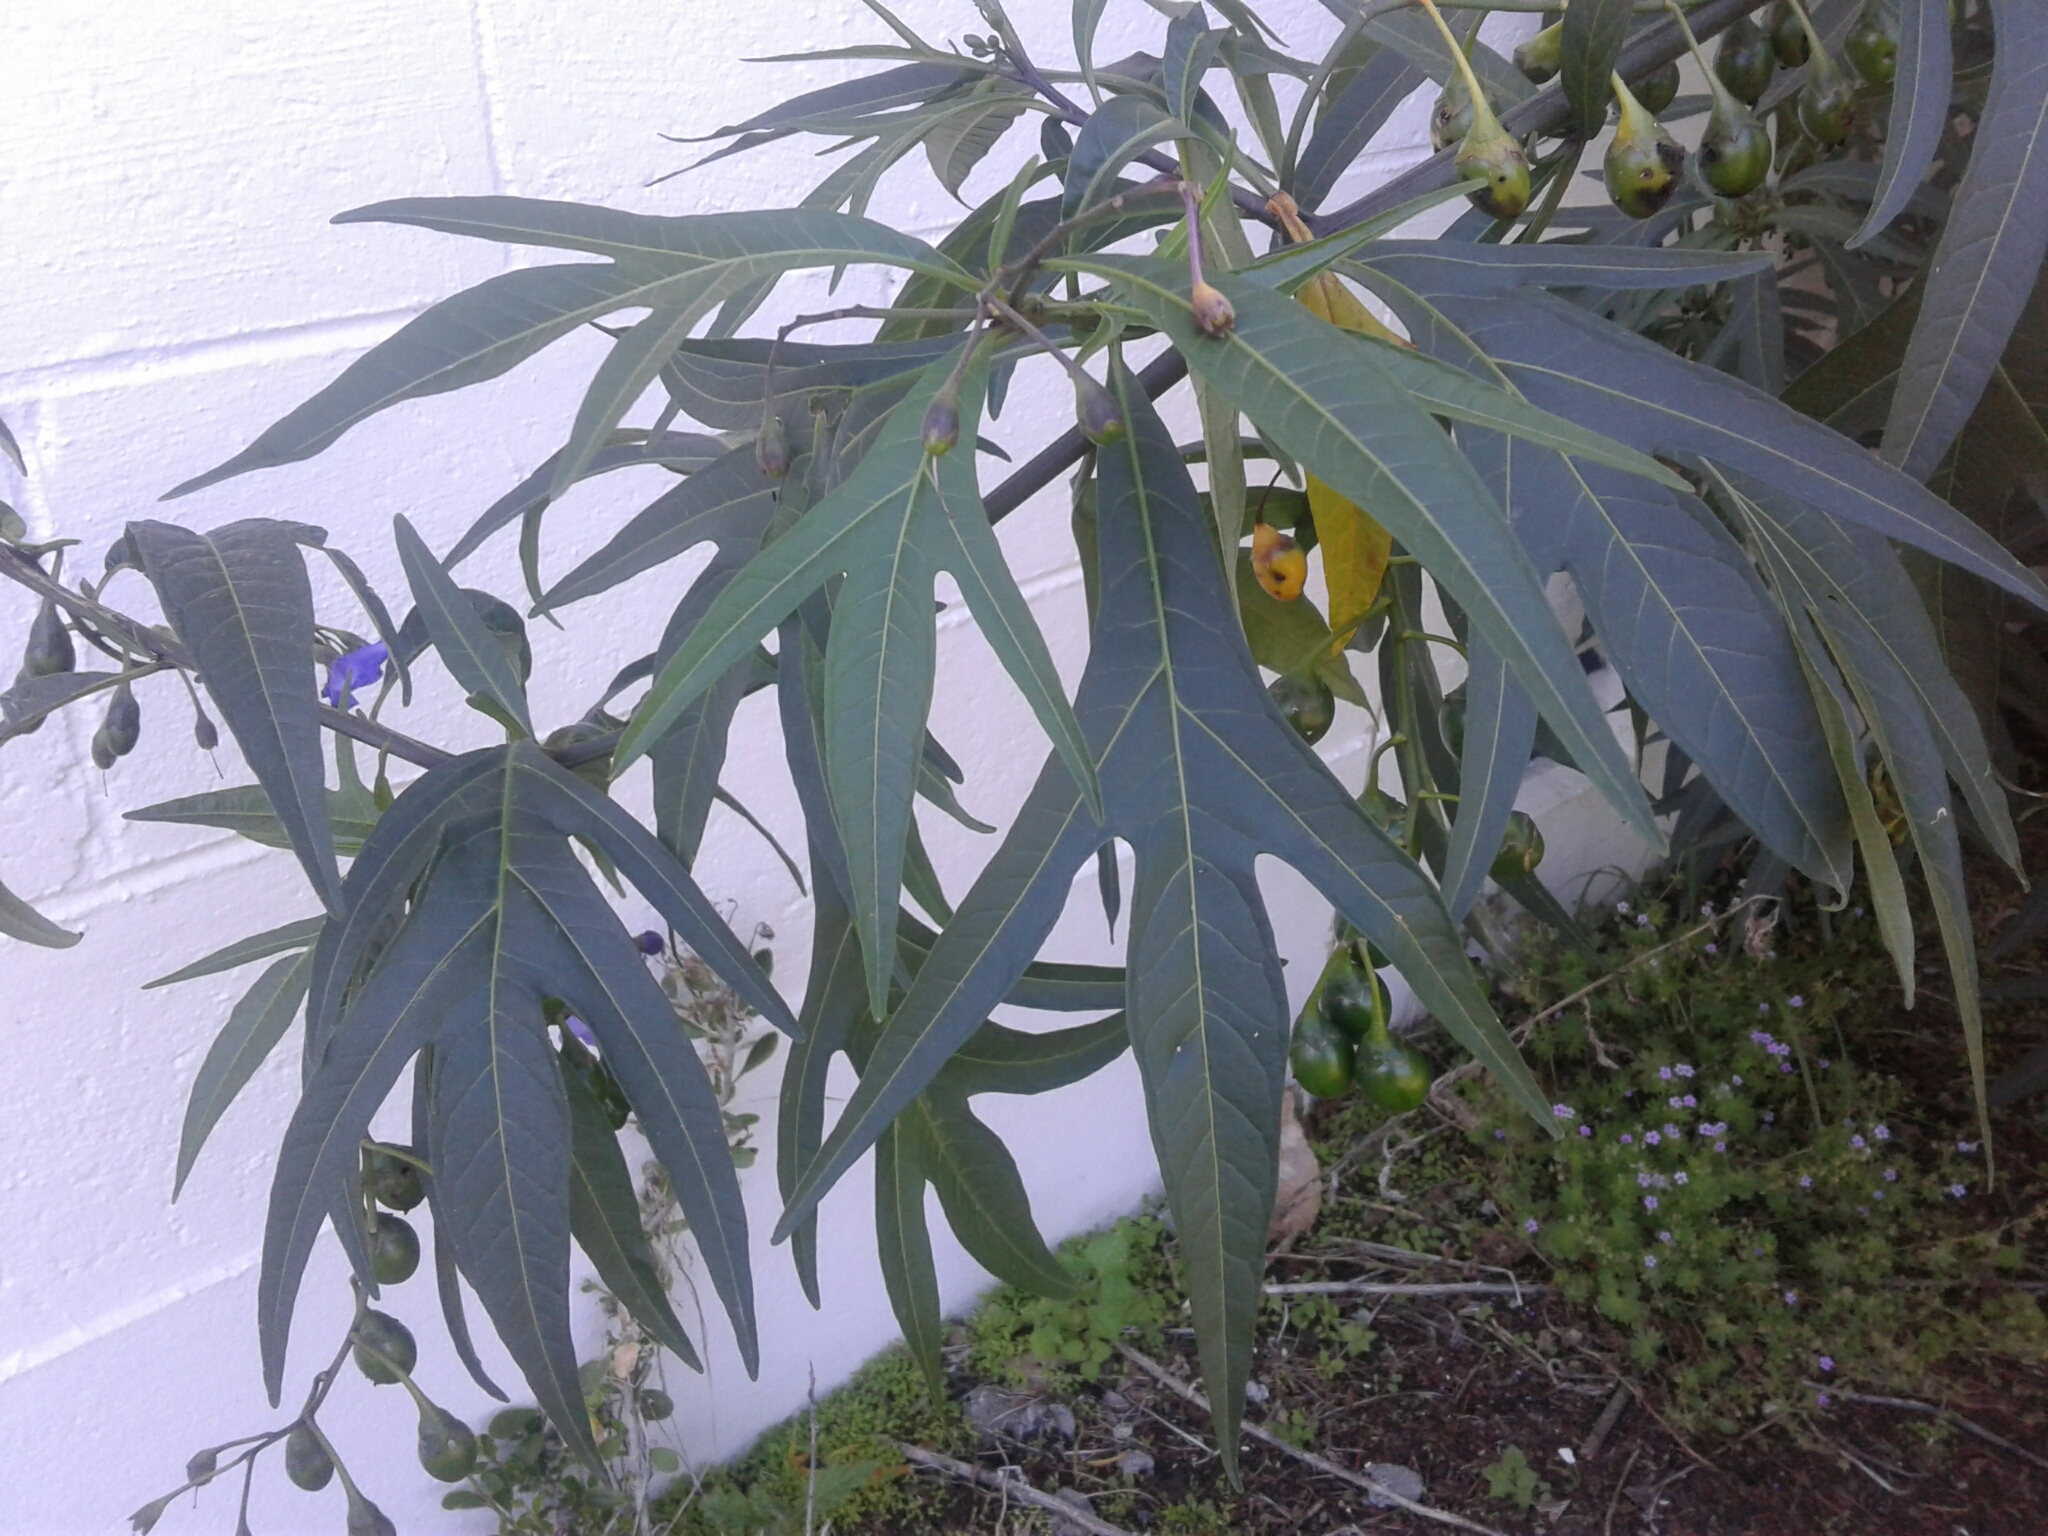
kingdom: Plantae
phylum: Tracheophyta
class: Magnoliopsida
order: Solanales
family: Solanaceae
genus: Solanum
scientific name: Solanum laciniatum
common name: Kangaroo-apple
